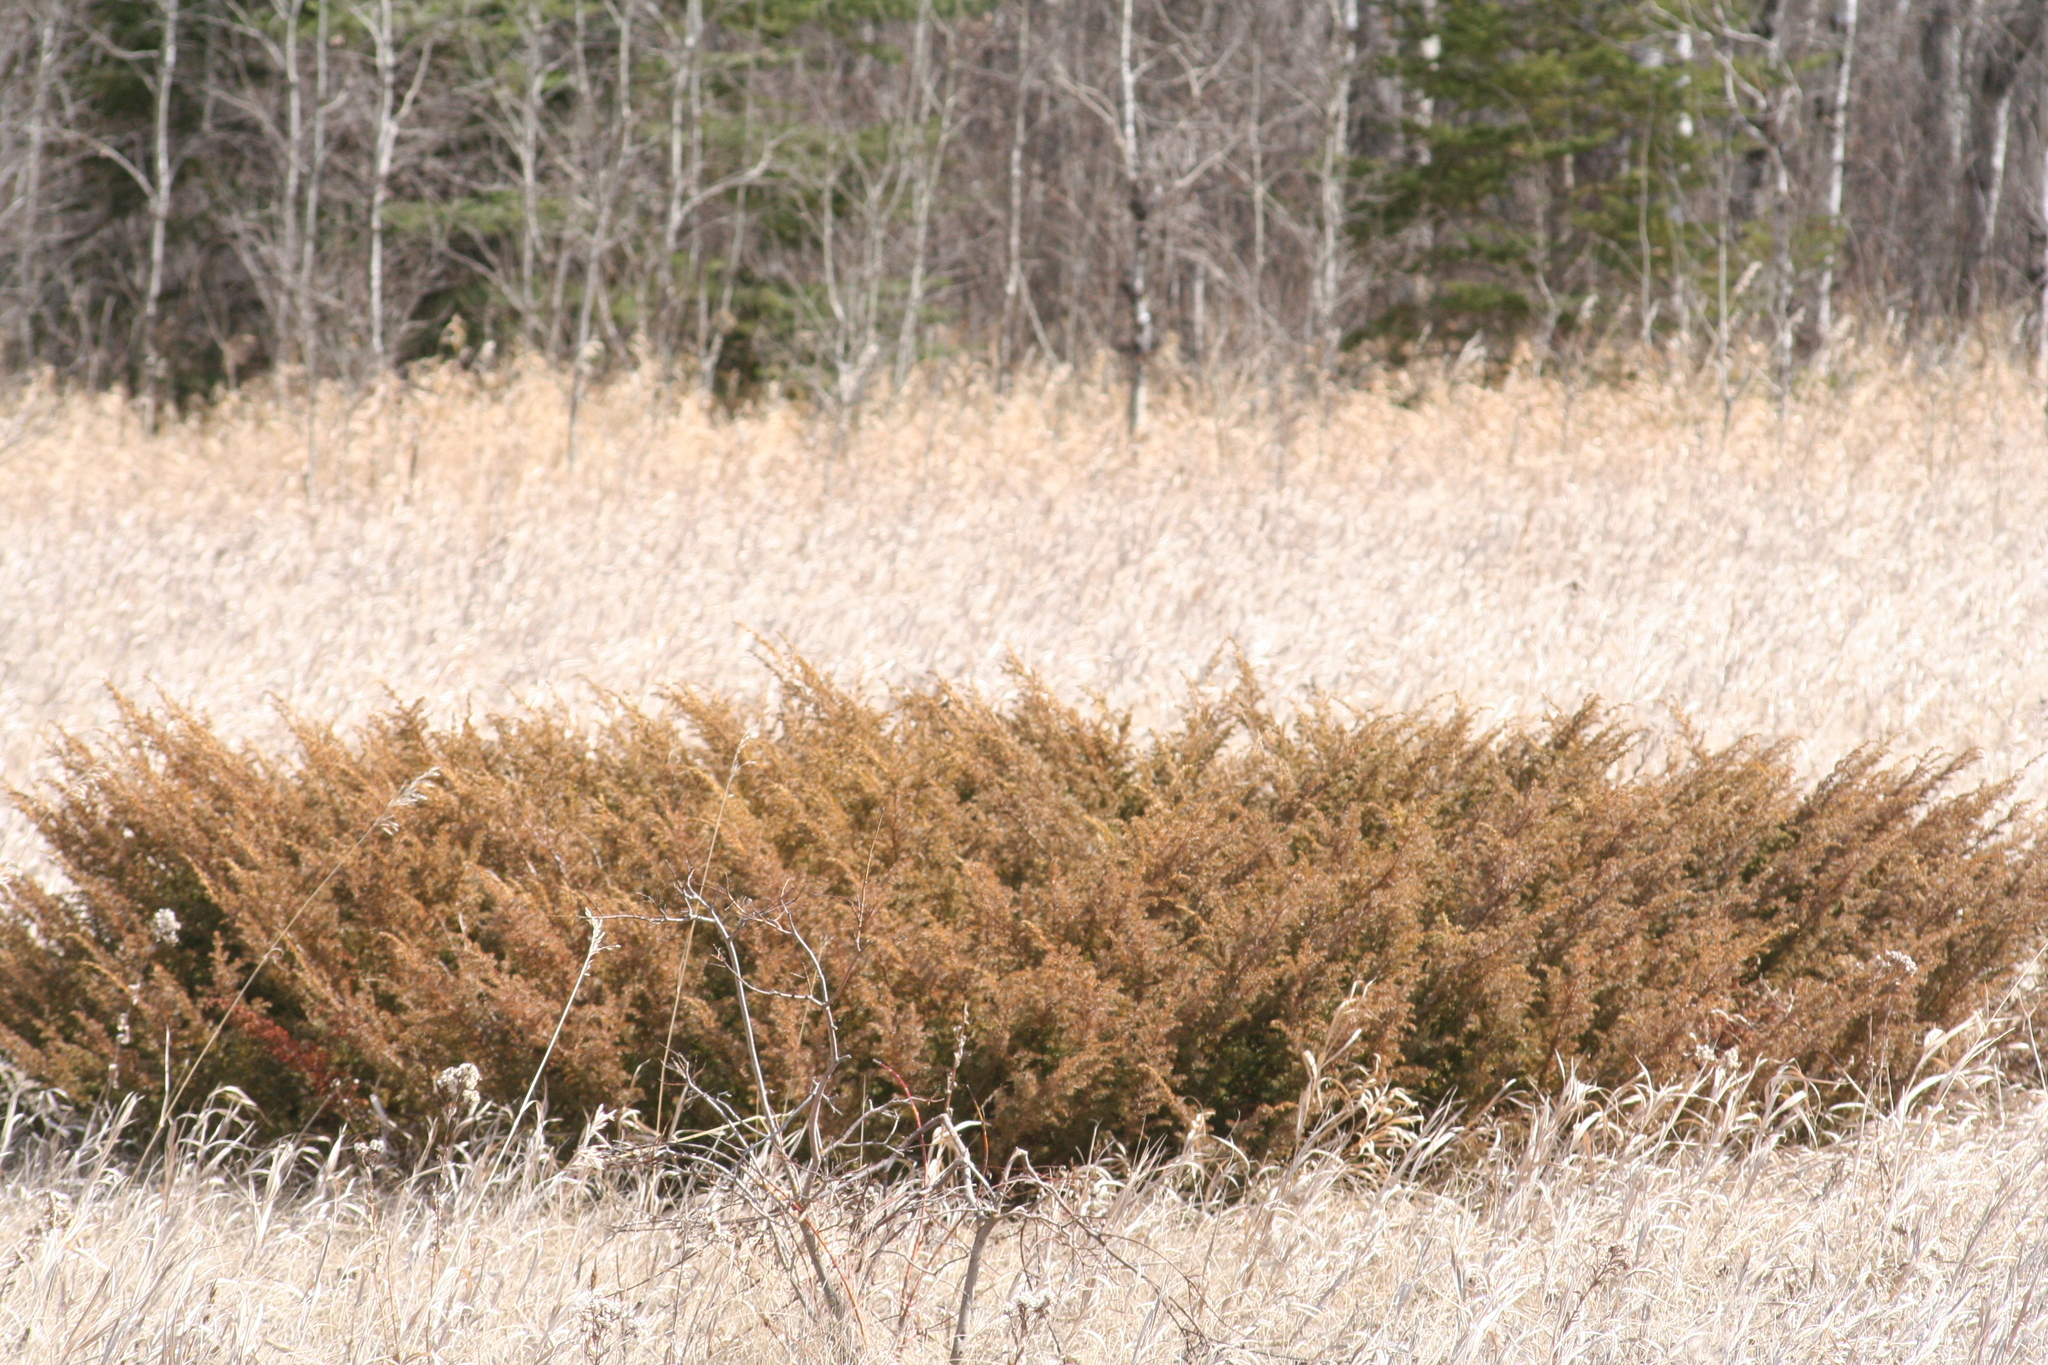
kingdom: Plantae
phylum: Tracheophyta
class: Pinopsida
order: Pinales
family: Cupressaceae
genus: Juniperus
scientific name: Juniperus communis
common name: Common juniper
